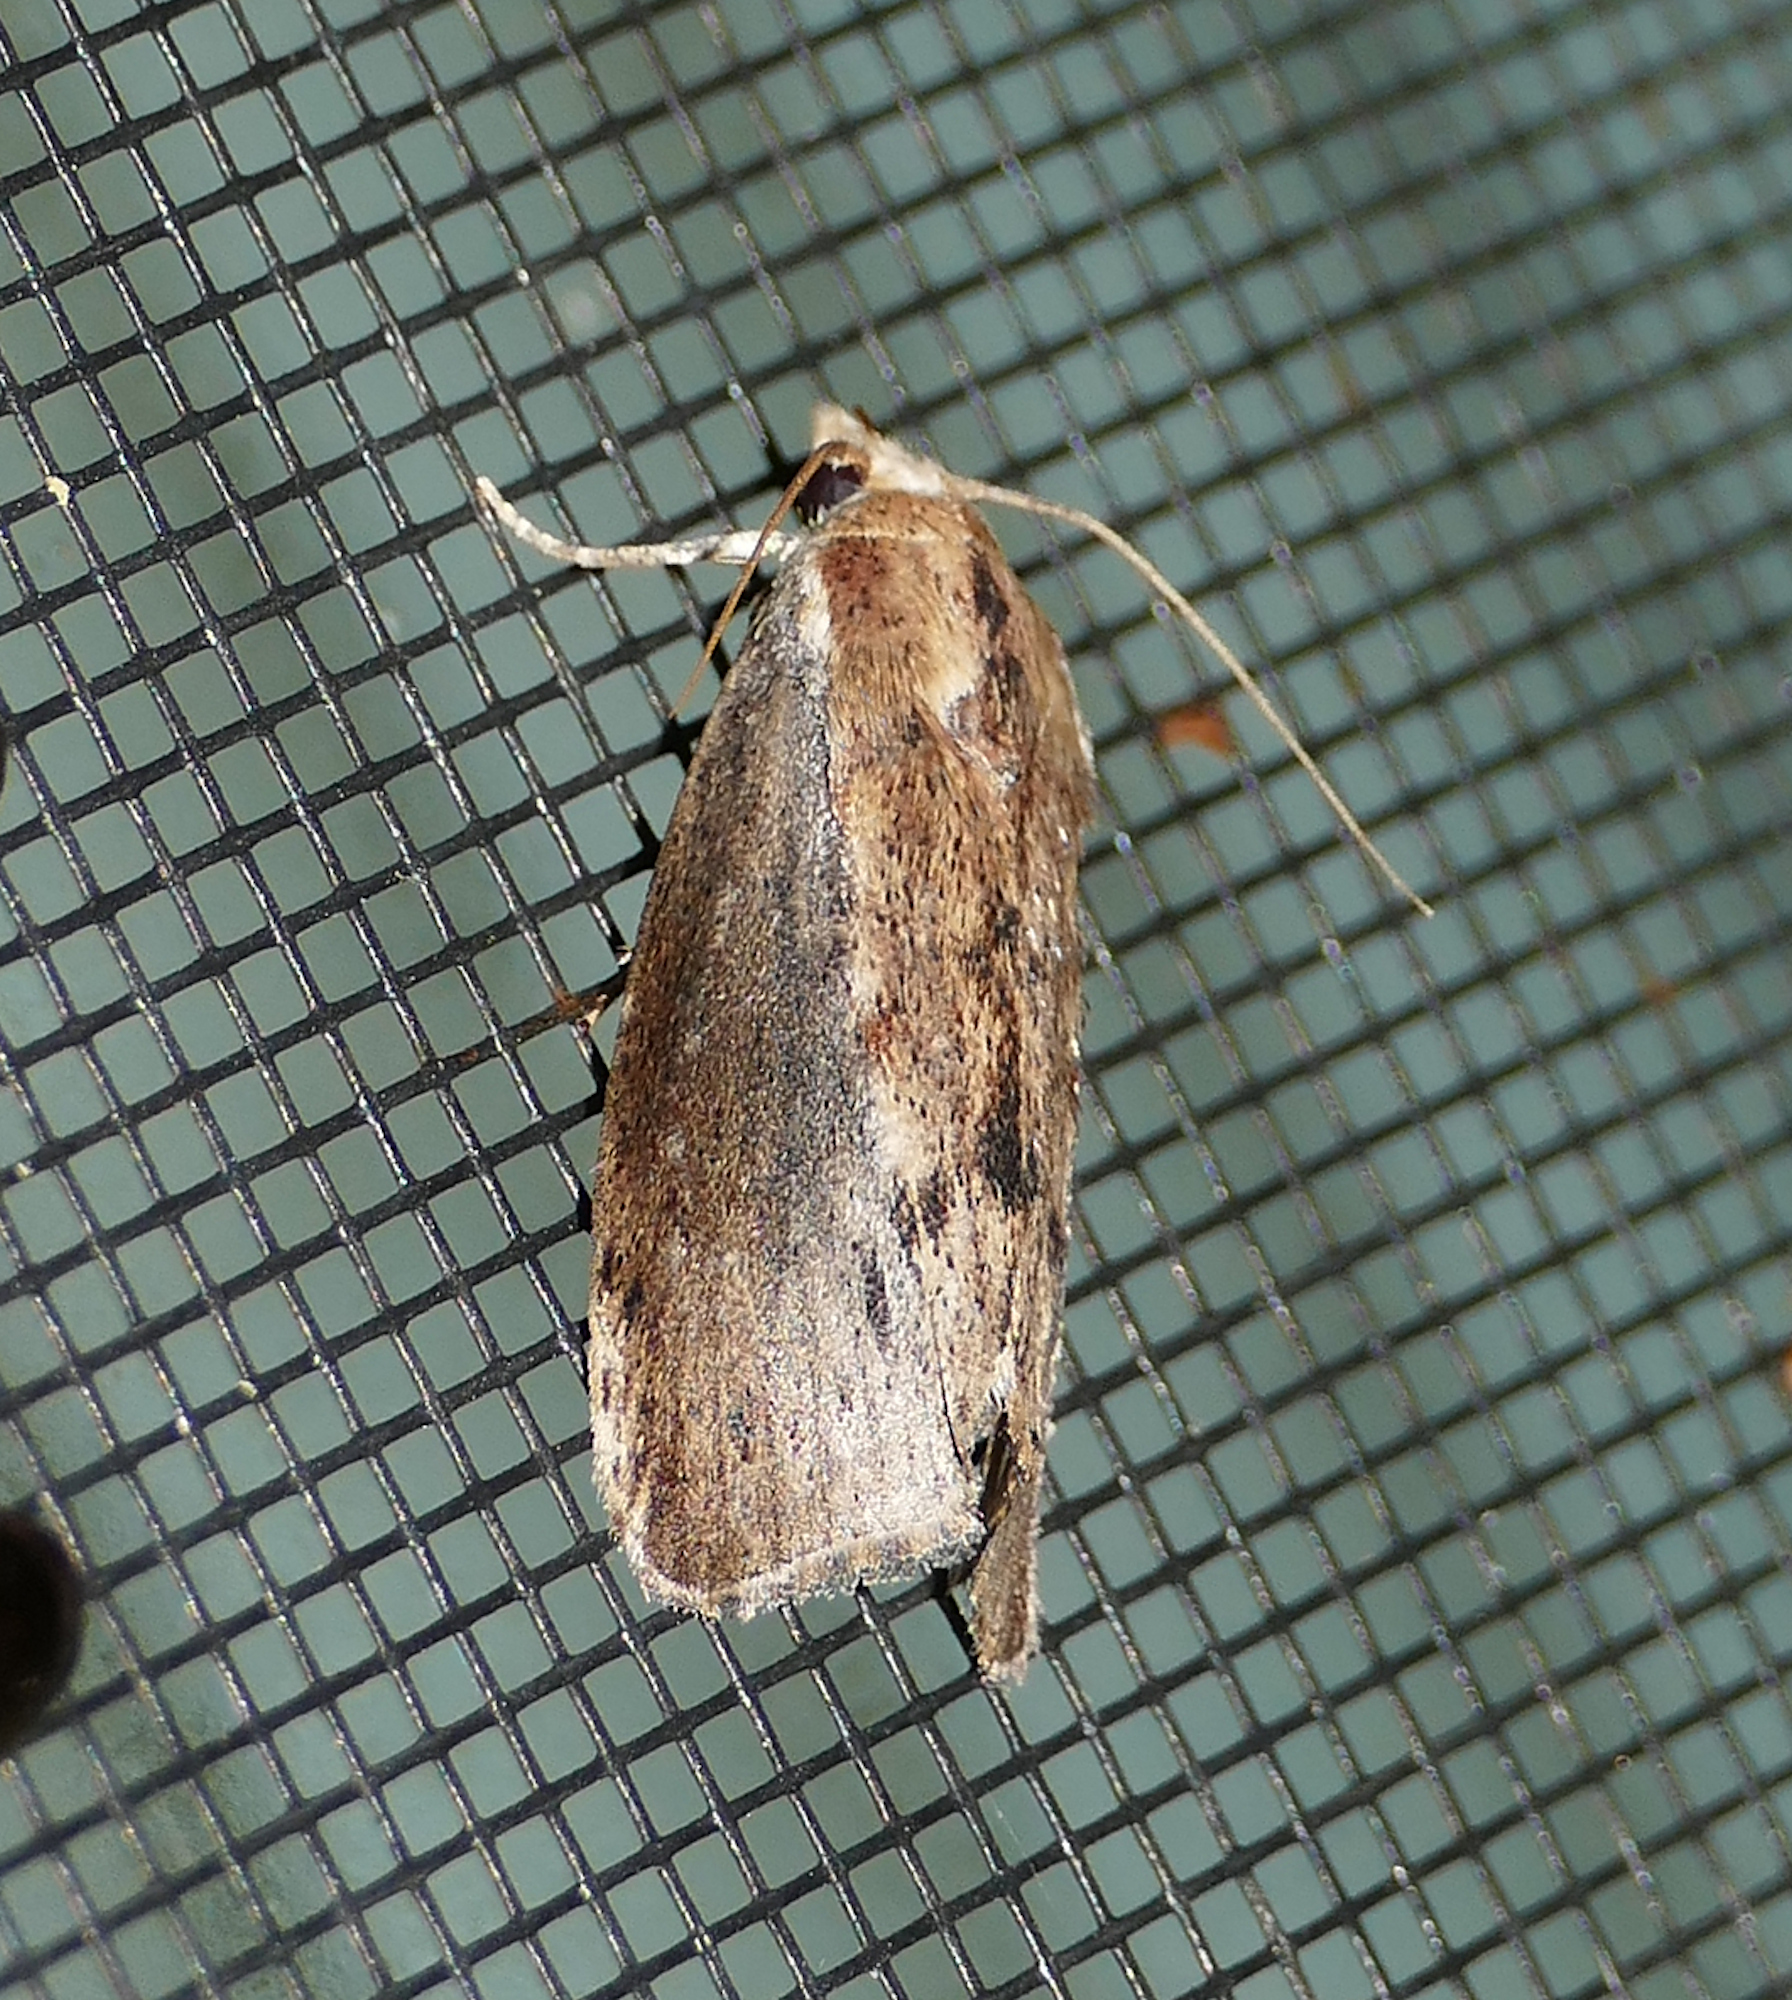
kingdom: Animalia
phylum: Arthropoda
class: Insecta
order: Lepidoptera
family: Pyralidae
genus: Galleria
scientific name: Galleria mellonella
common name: Greater wax moth
